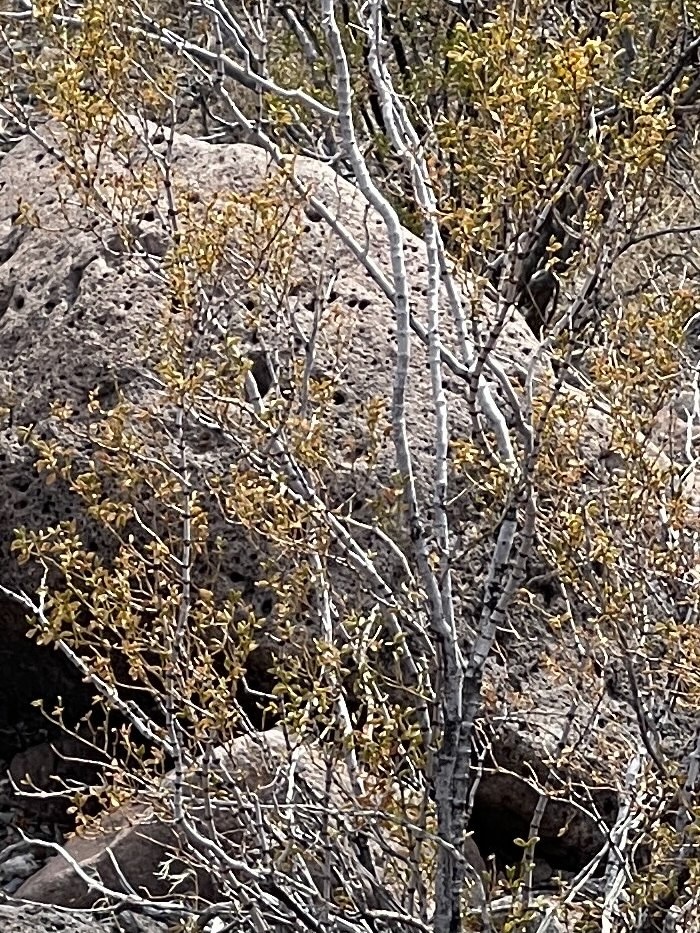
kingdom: Plantae
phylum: Tracheophyta
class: Magnoliopsida
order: Zygophyllales
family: Zygophyllaceae
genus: Larrea
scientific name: Larrea tridentata
